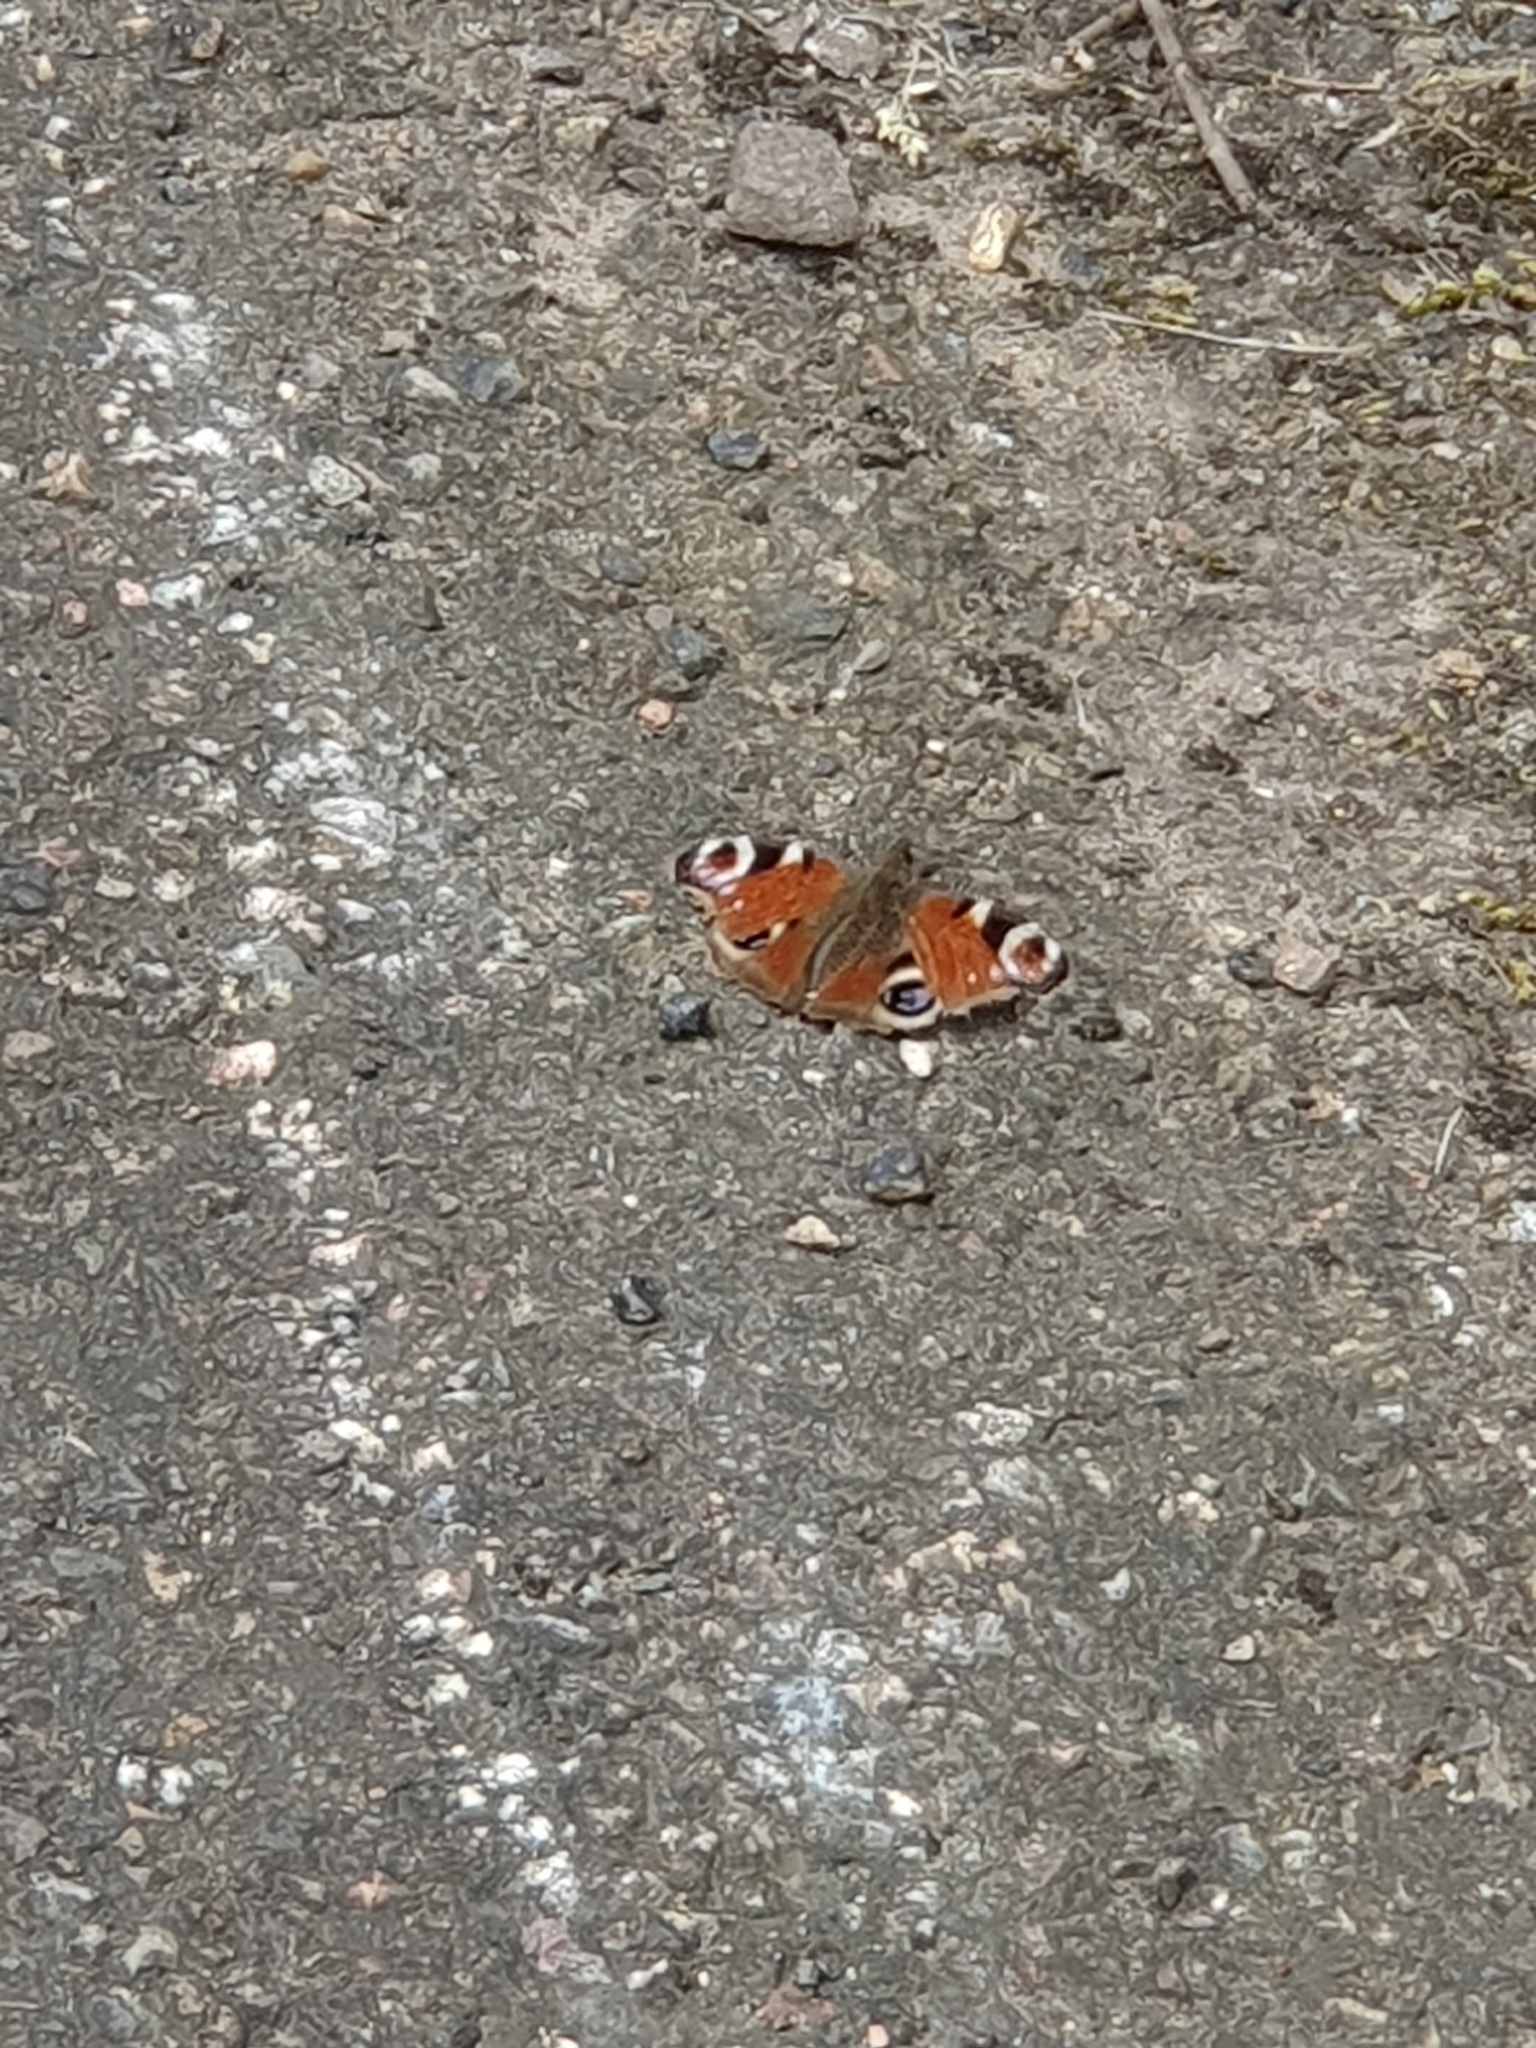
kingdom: Animalia
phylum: Arthropoda
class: Insecta
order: Lepidoptera
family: Nymphalidae
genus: Aglais
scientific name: Aglais io
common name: Peacock
